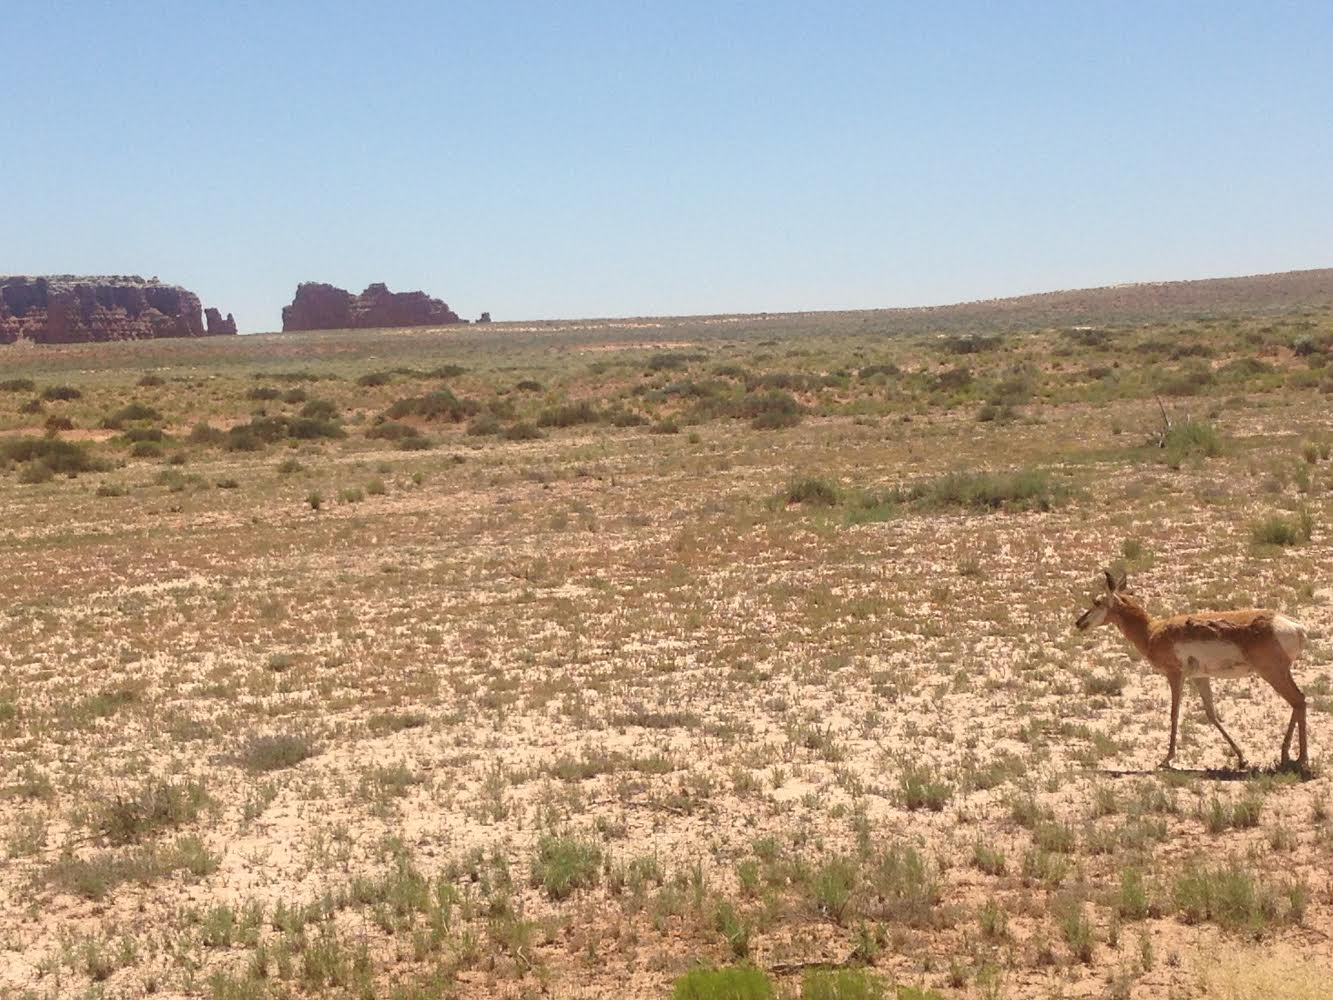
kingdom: Animalia
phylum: Chordata
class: Mammalia
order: Artiodactyla
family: Antilocapridae
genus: Antilocapra
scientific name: Antilocapra americana
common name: Pronghorn
